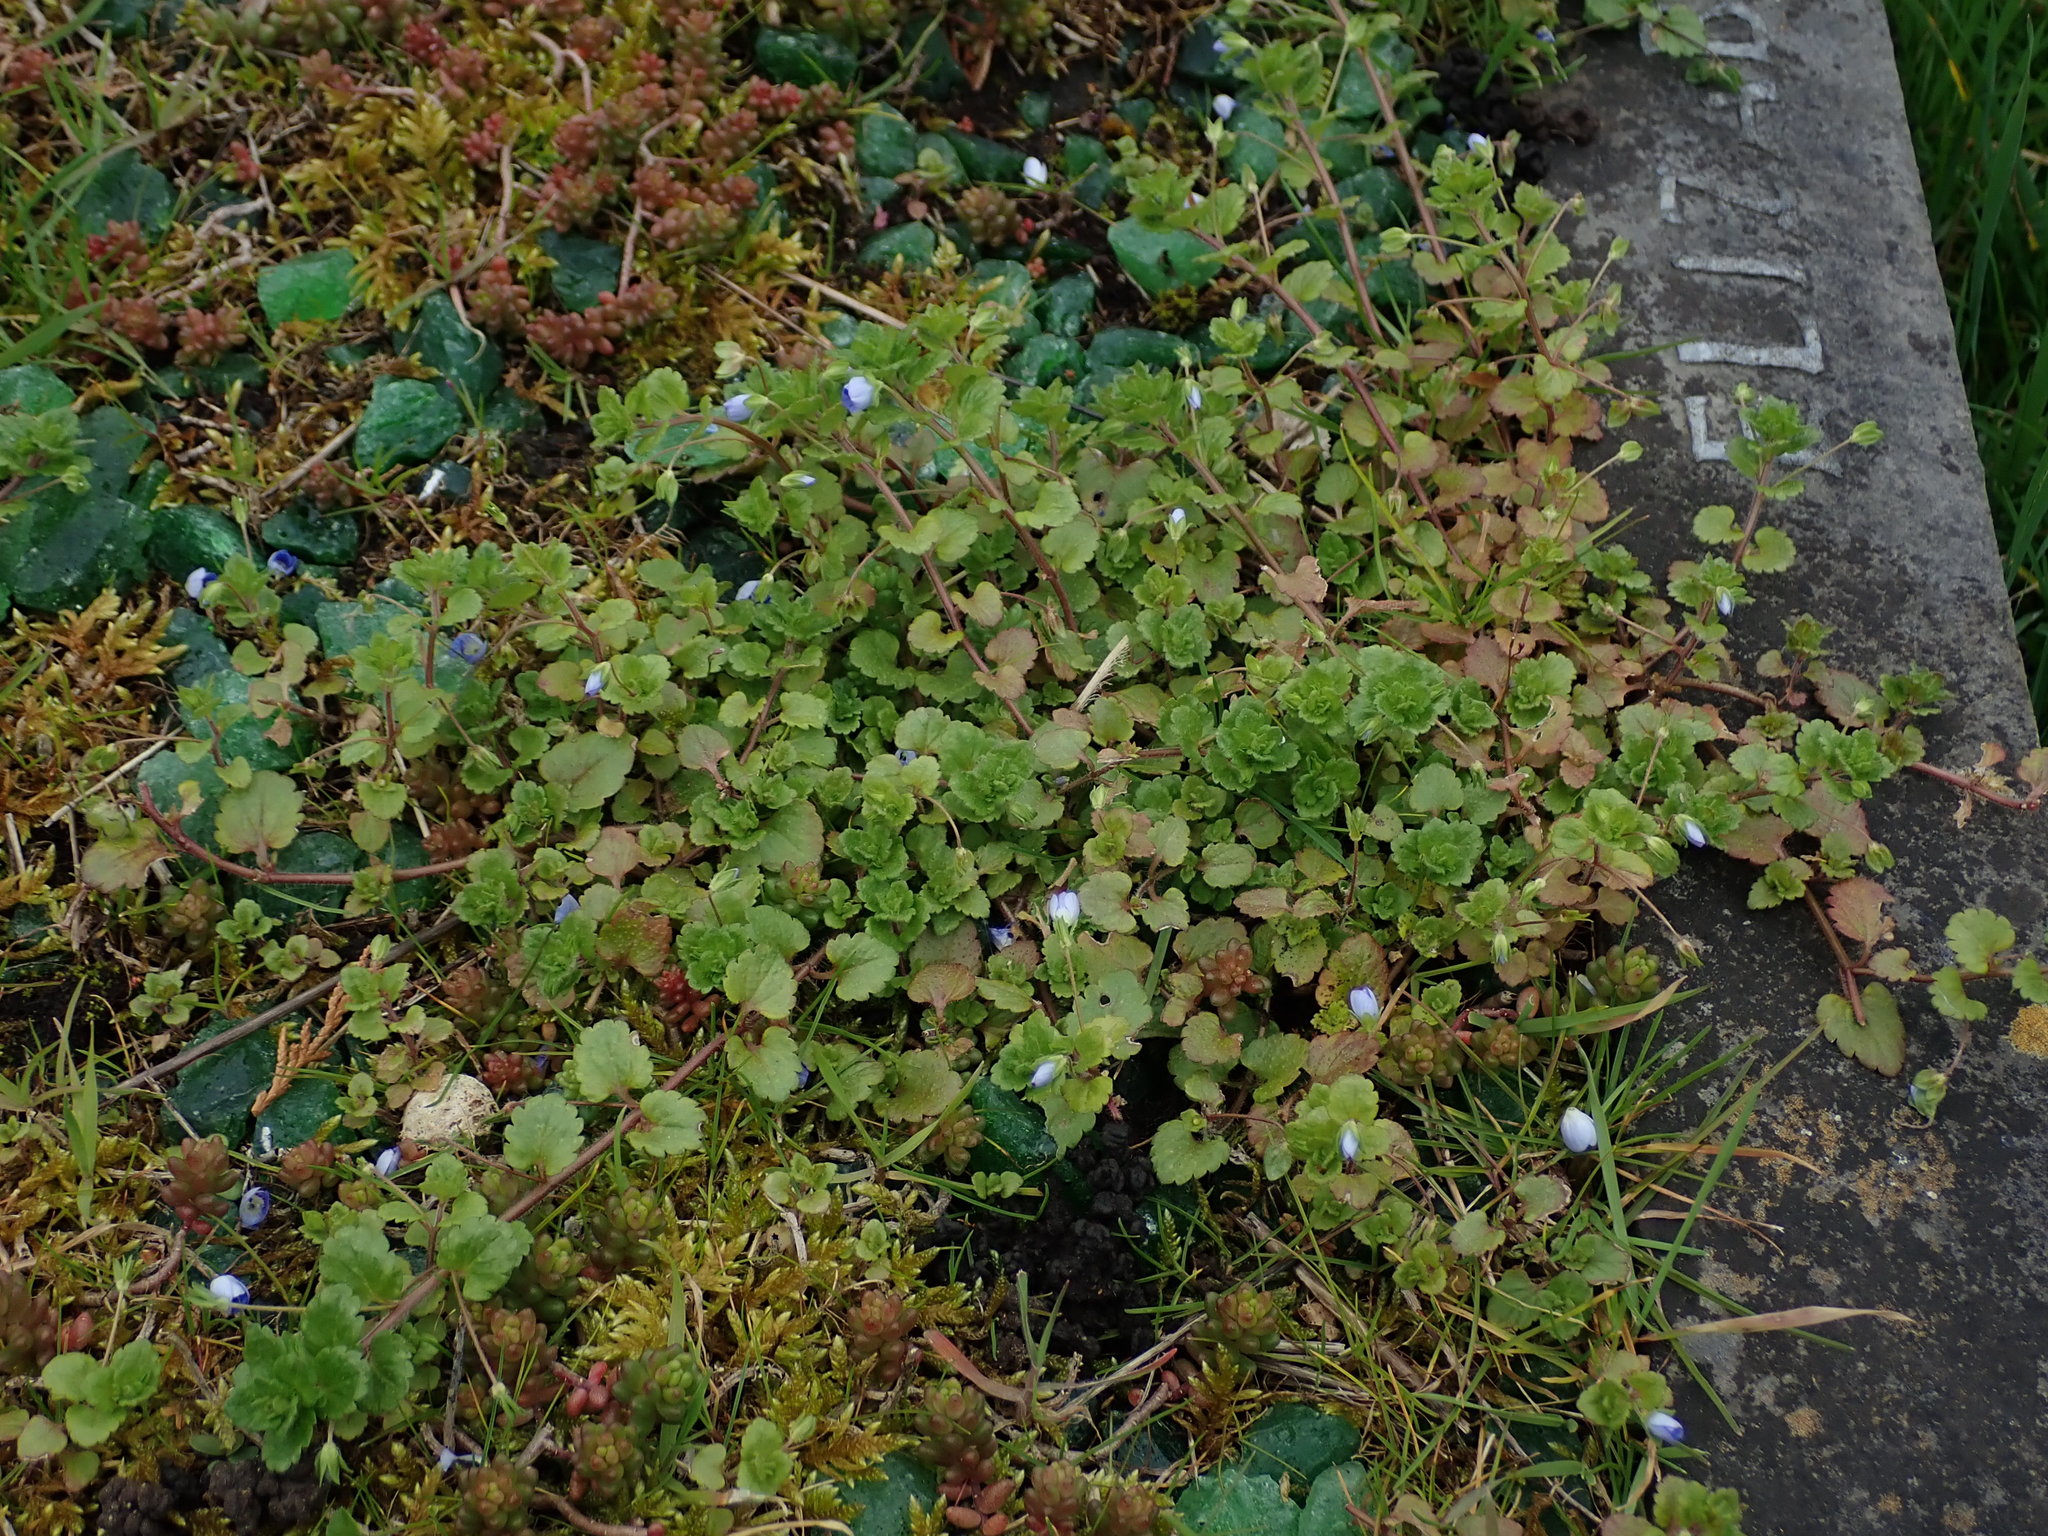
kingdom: Plantae
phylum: Tracheophyta
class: Magnoliopsida
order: Lamiales
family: Plantaginaceae
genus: Veronica
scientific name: Veronica persica
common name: Common field-speedwell
